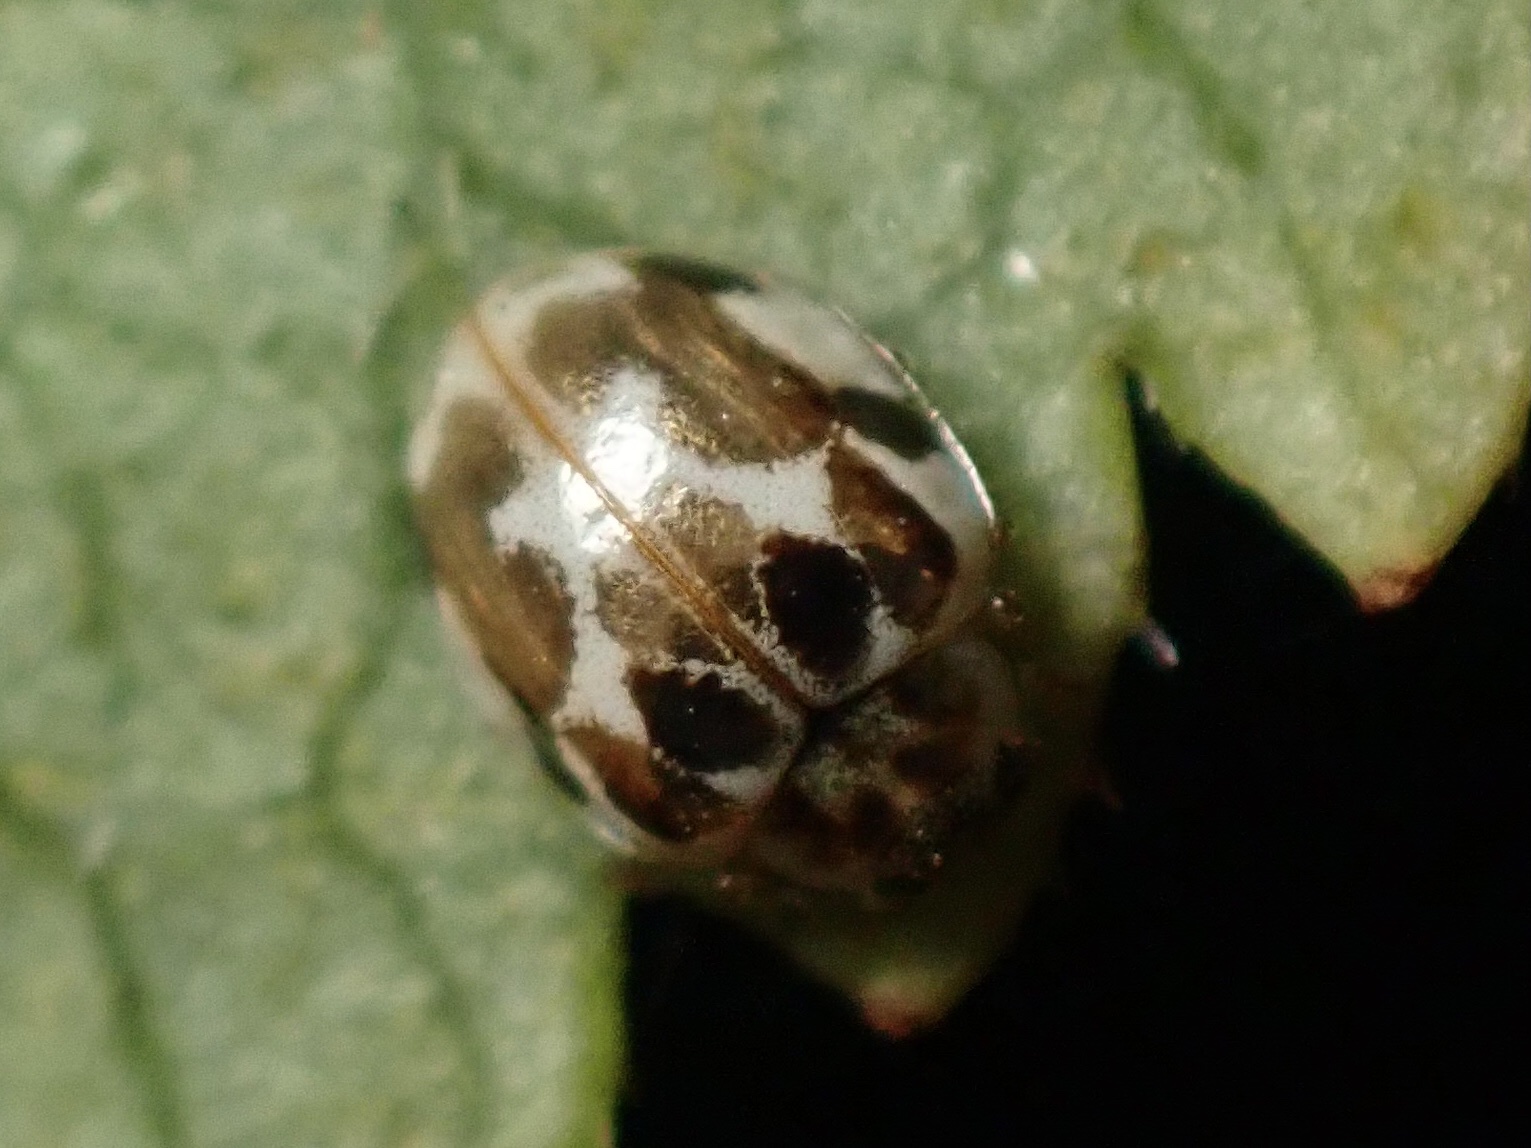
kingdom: Animalia
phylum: Arthropoda
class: Insecta
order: Coleoptera
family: Coccinellidae
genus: Psyllobora
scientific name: Psyllobora vigintimaculata
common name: Ladybird beetle
